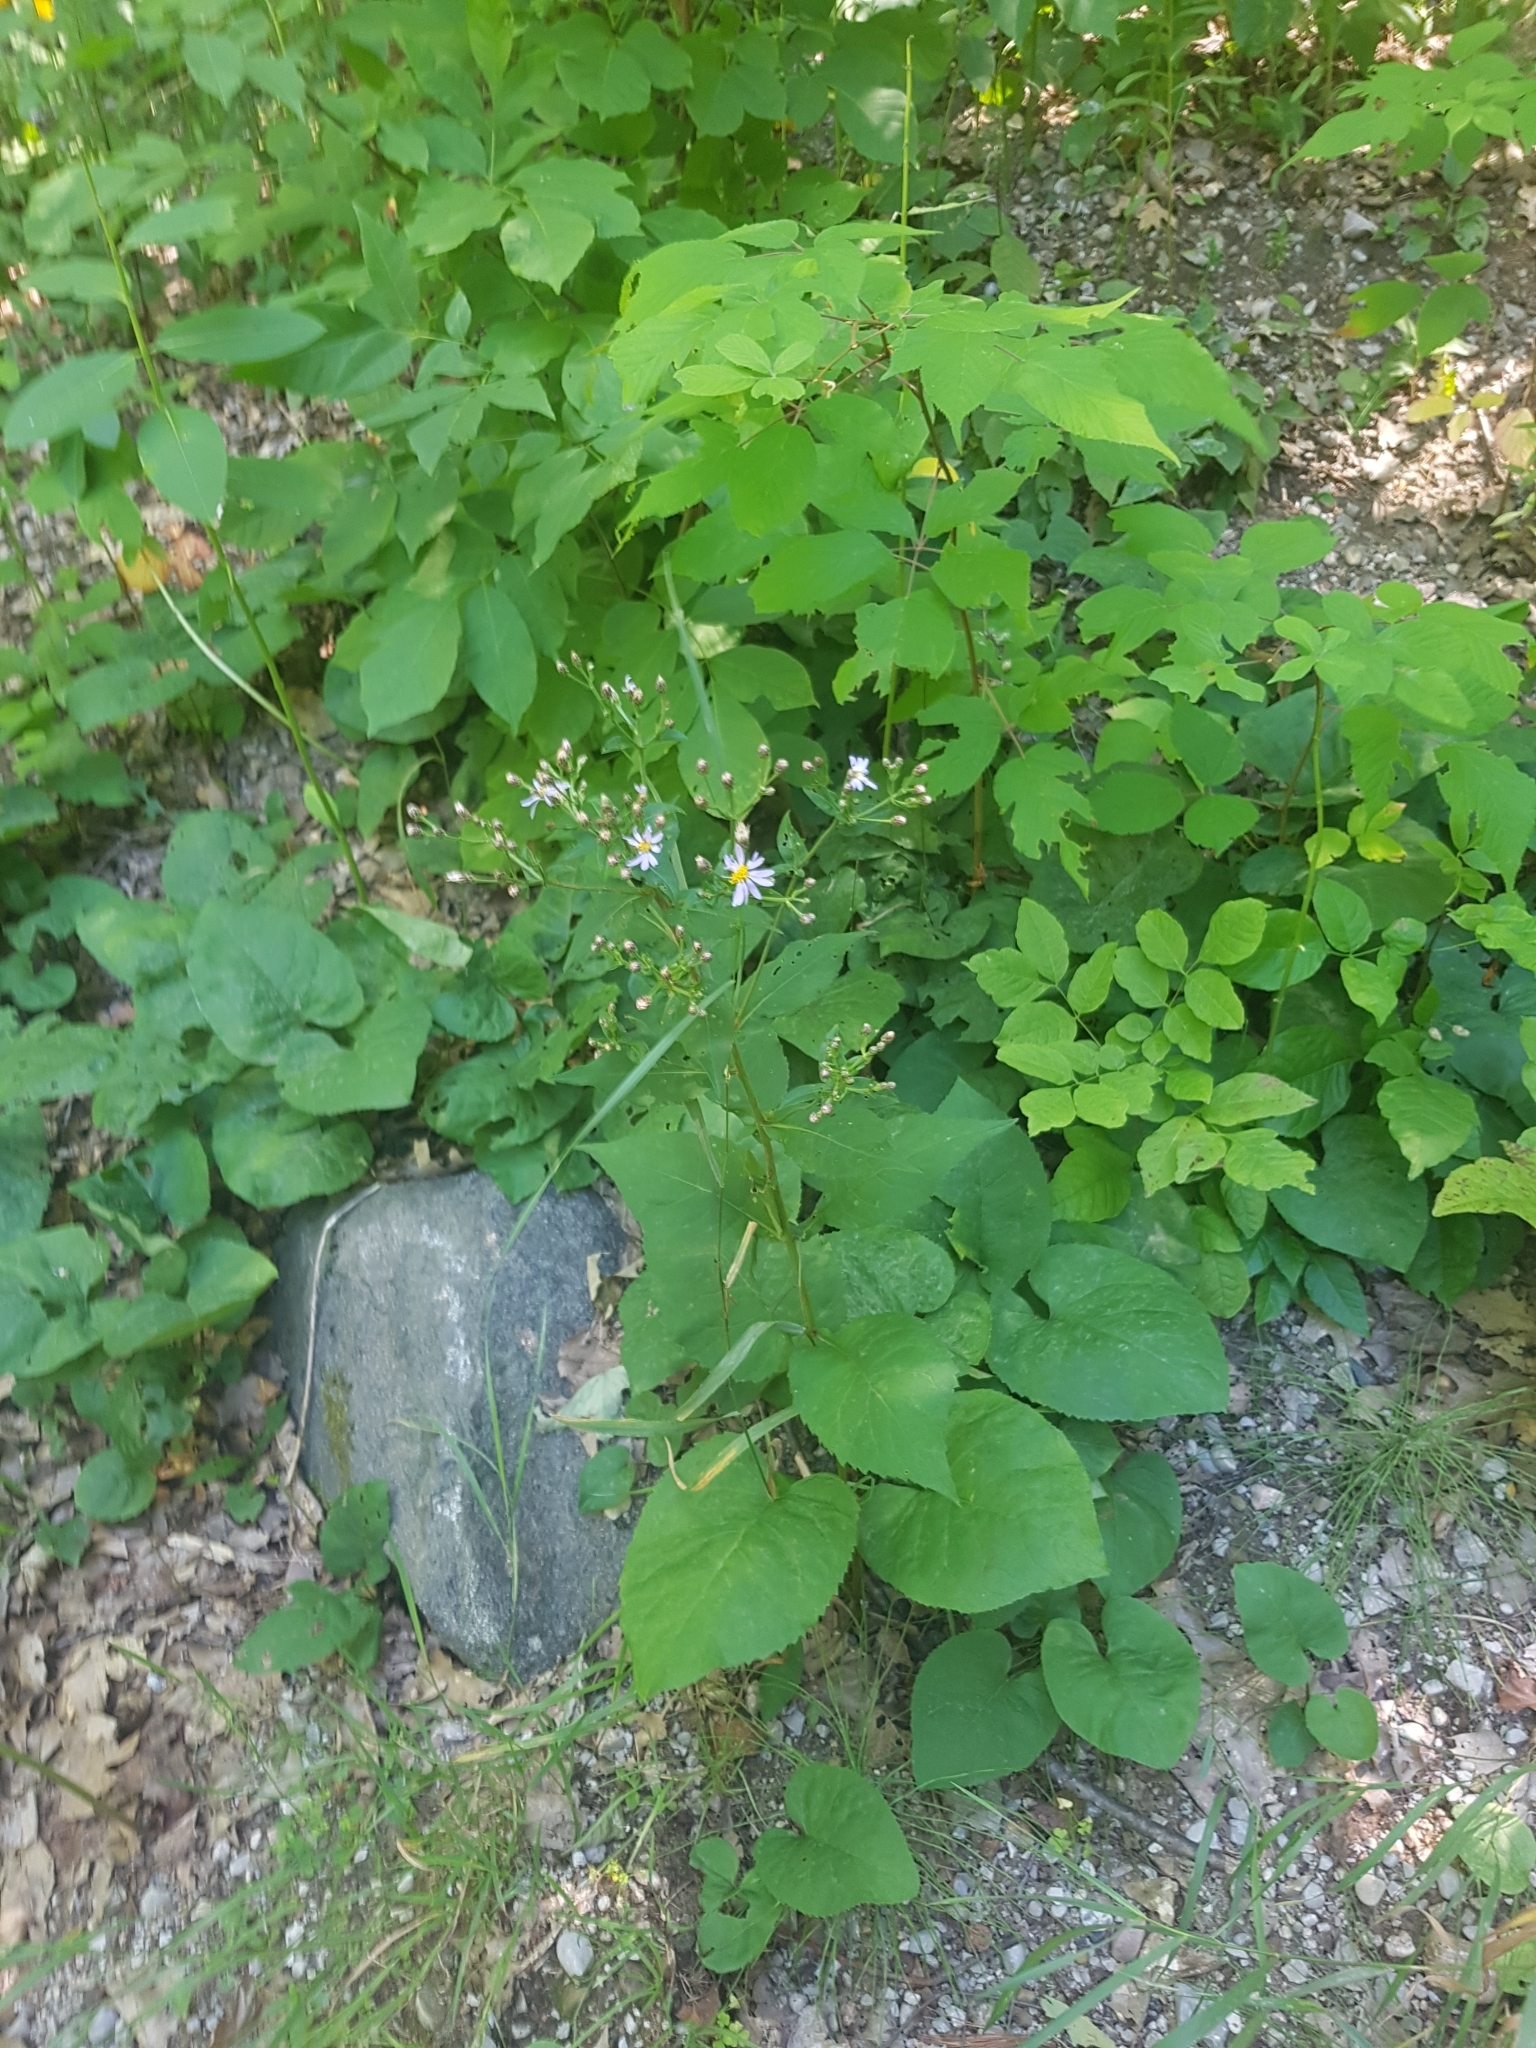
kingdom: Plantae
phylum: Tracheophyta
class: Magnoliopsida
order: Asterales
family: Asteraceae
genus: Eurybia
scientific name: Eurybia macrophylla
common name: Big-leaved aster
